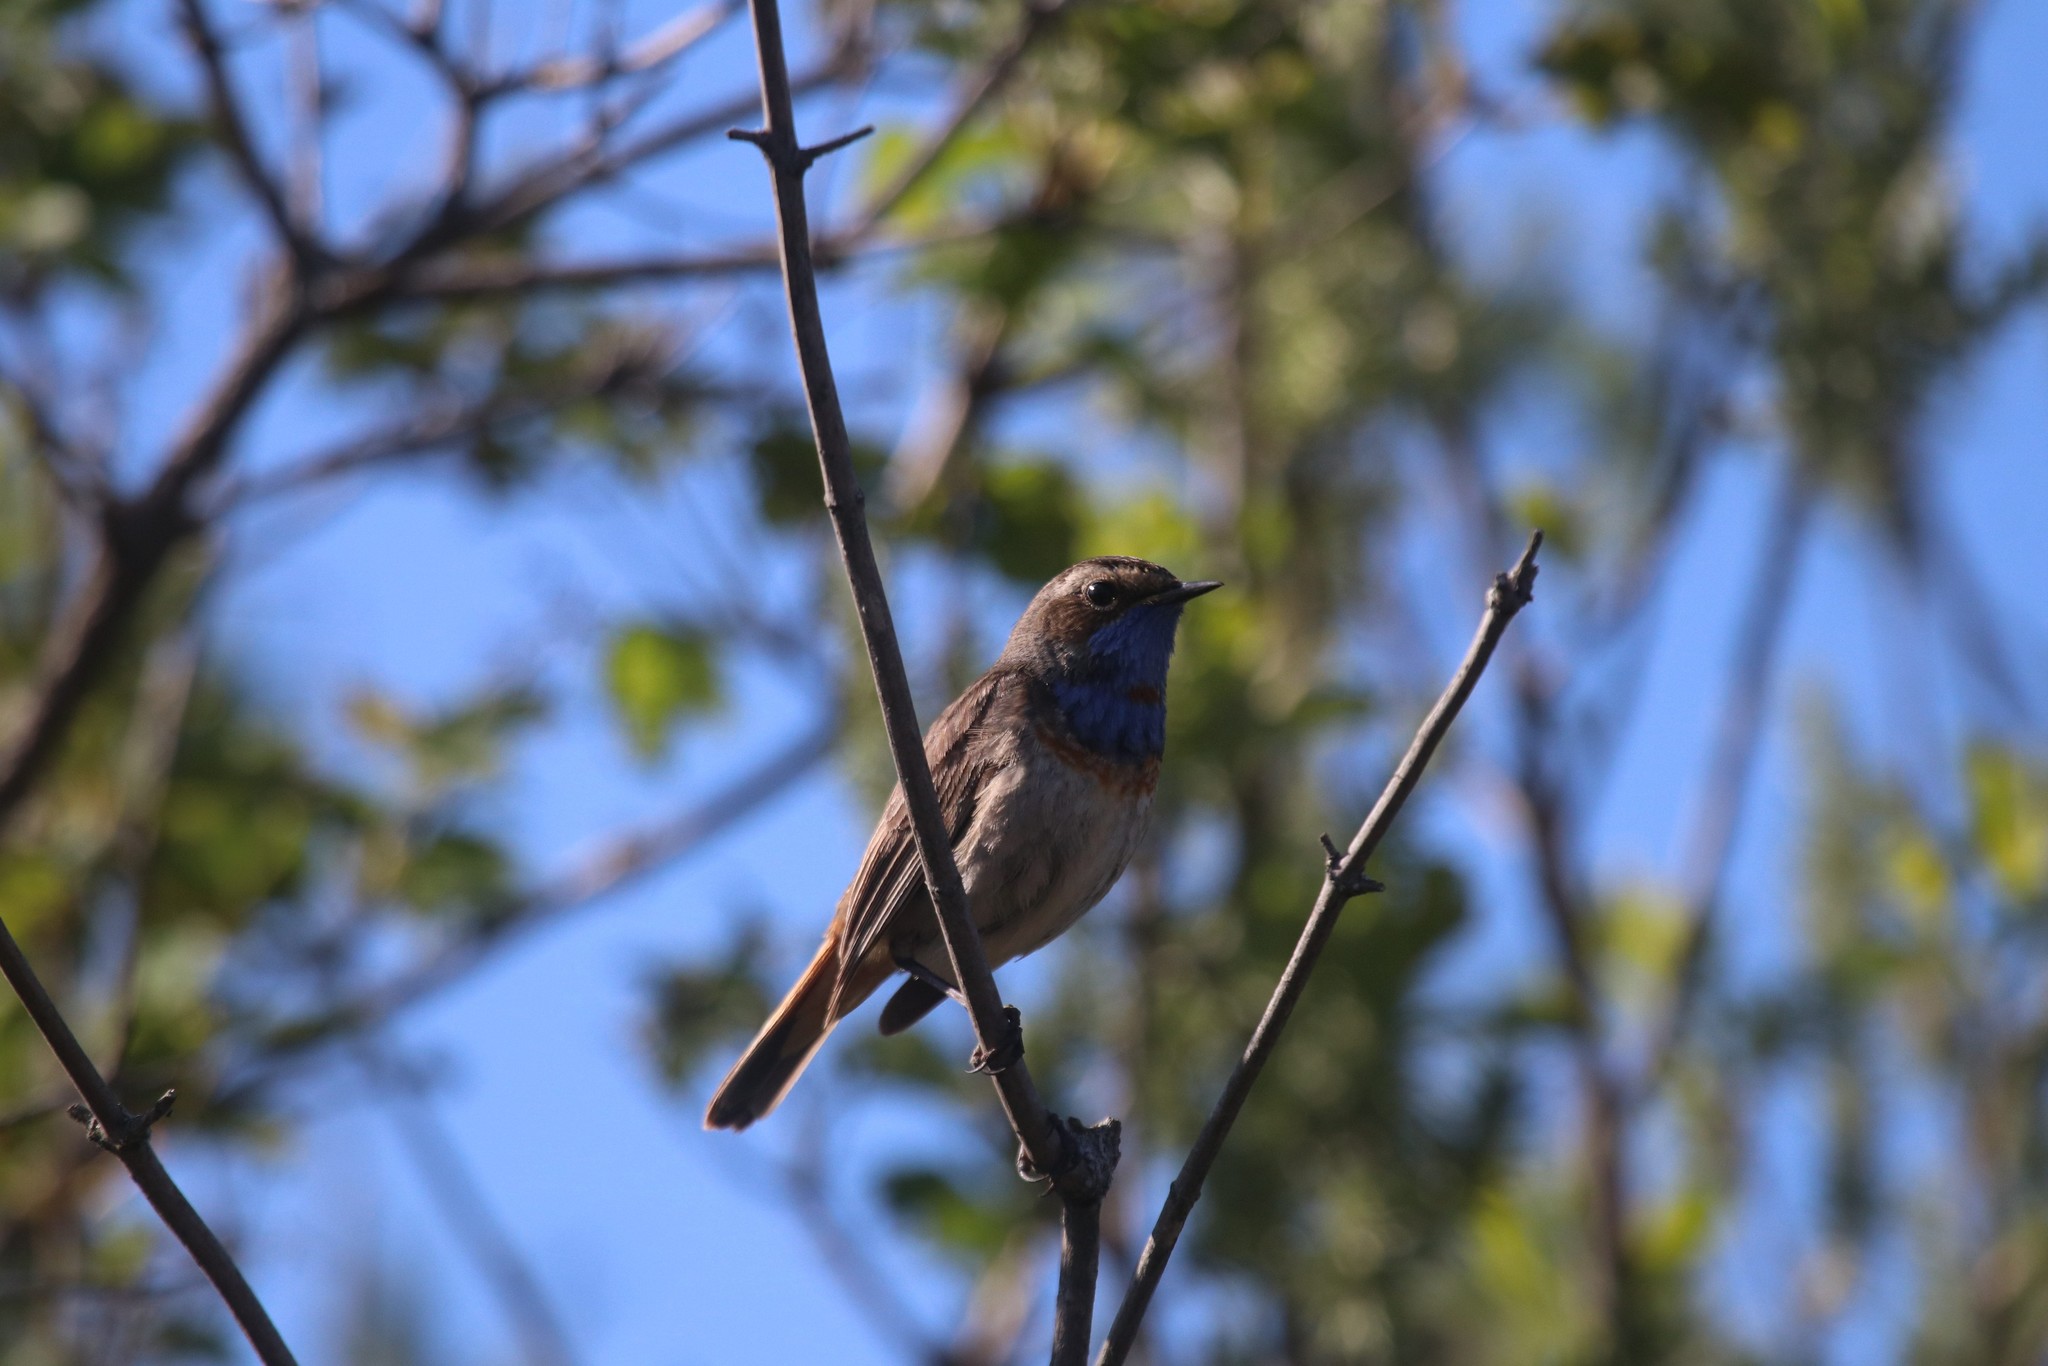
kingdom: Animalia
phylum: Chordata
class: Aves
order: Passeriformes
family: Muscicapidae
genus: Luscinia
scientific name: Luscinia svecica
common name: Bluethroat
